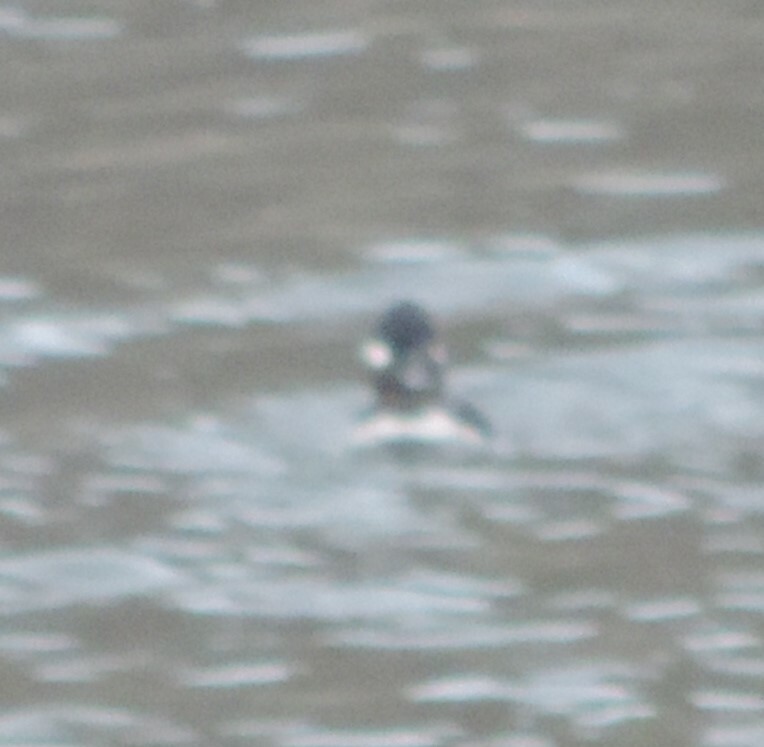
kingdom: Animalia
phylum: Chordata
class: Aves
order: Anseriformes
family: Anatidae
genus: Bucephala
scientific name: Bucephala albeola
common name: Bufflehead
